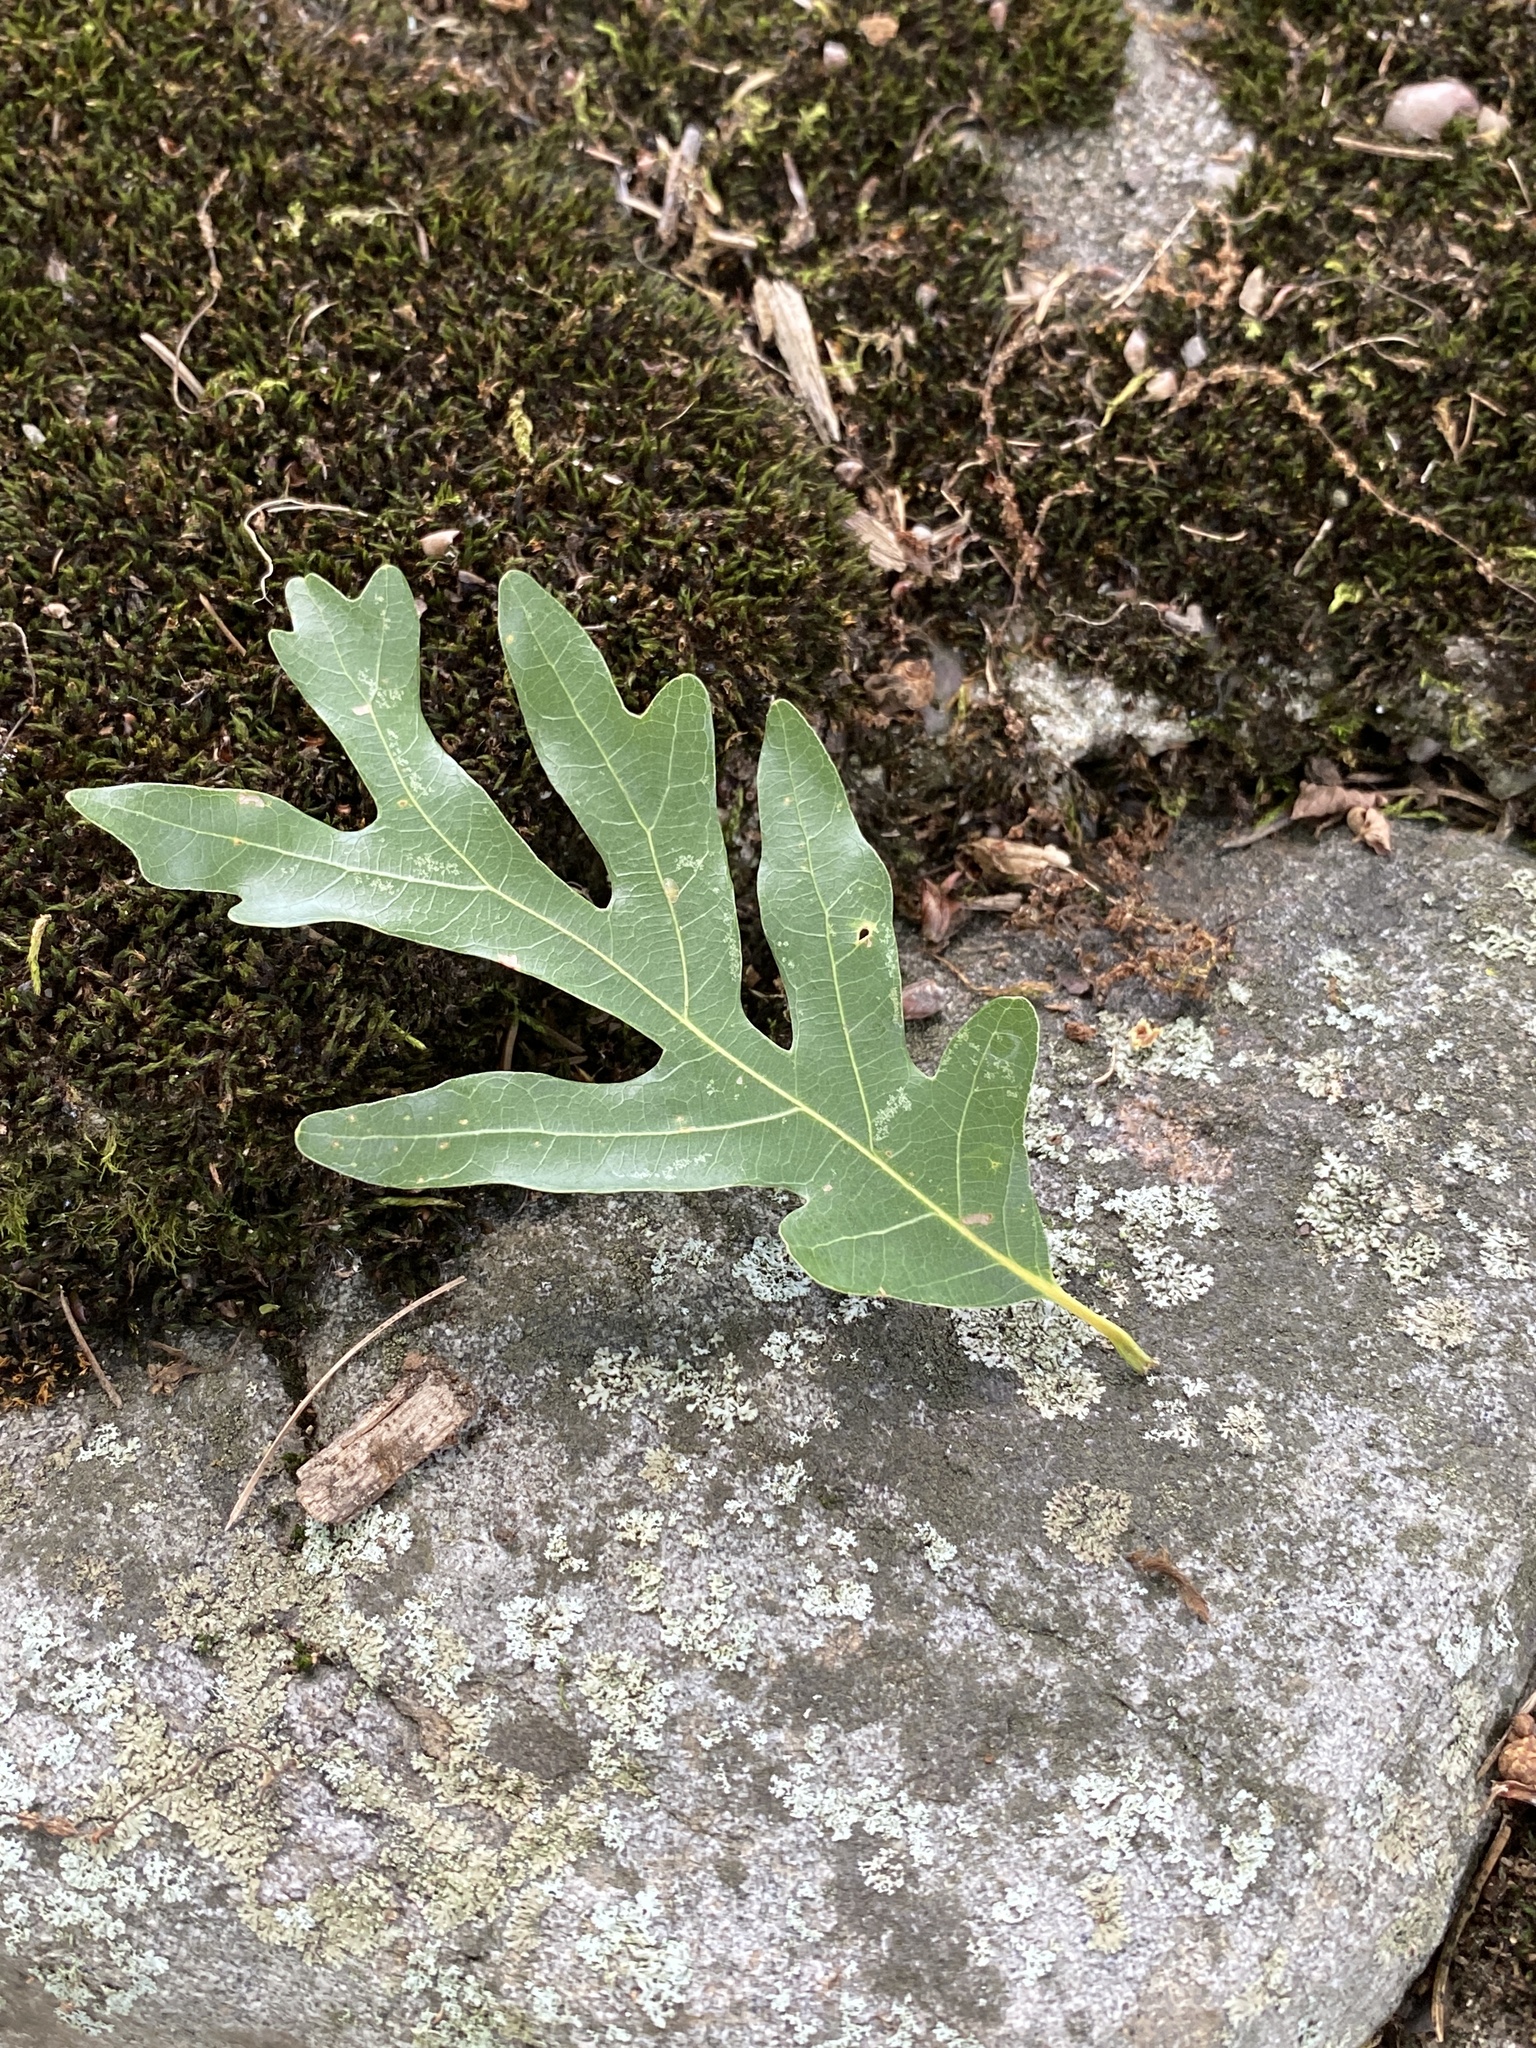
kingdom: Plantae
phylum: Tracheophyta
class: Magnoliopsida
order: Fagales
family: Fagaceae
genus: Quercus
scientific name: Quercus alba
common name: White oak
